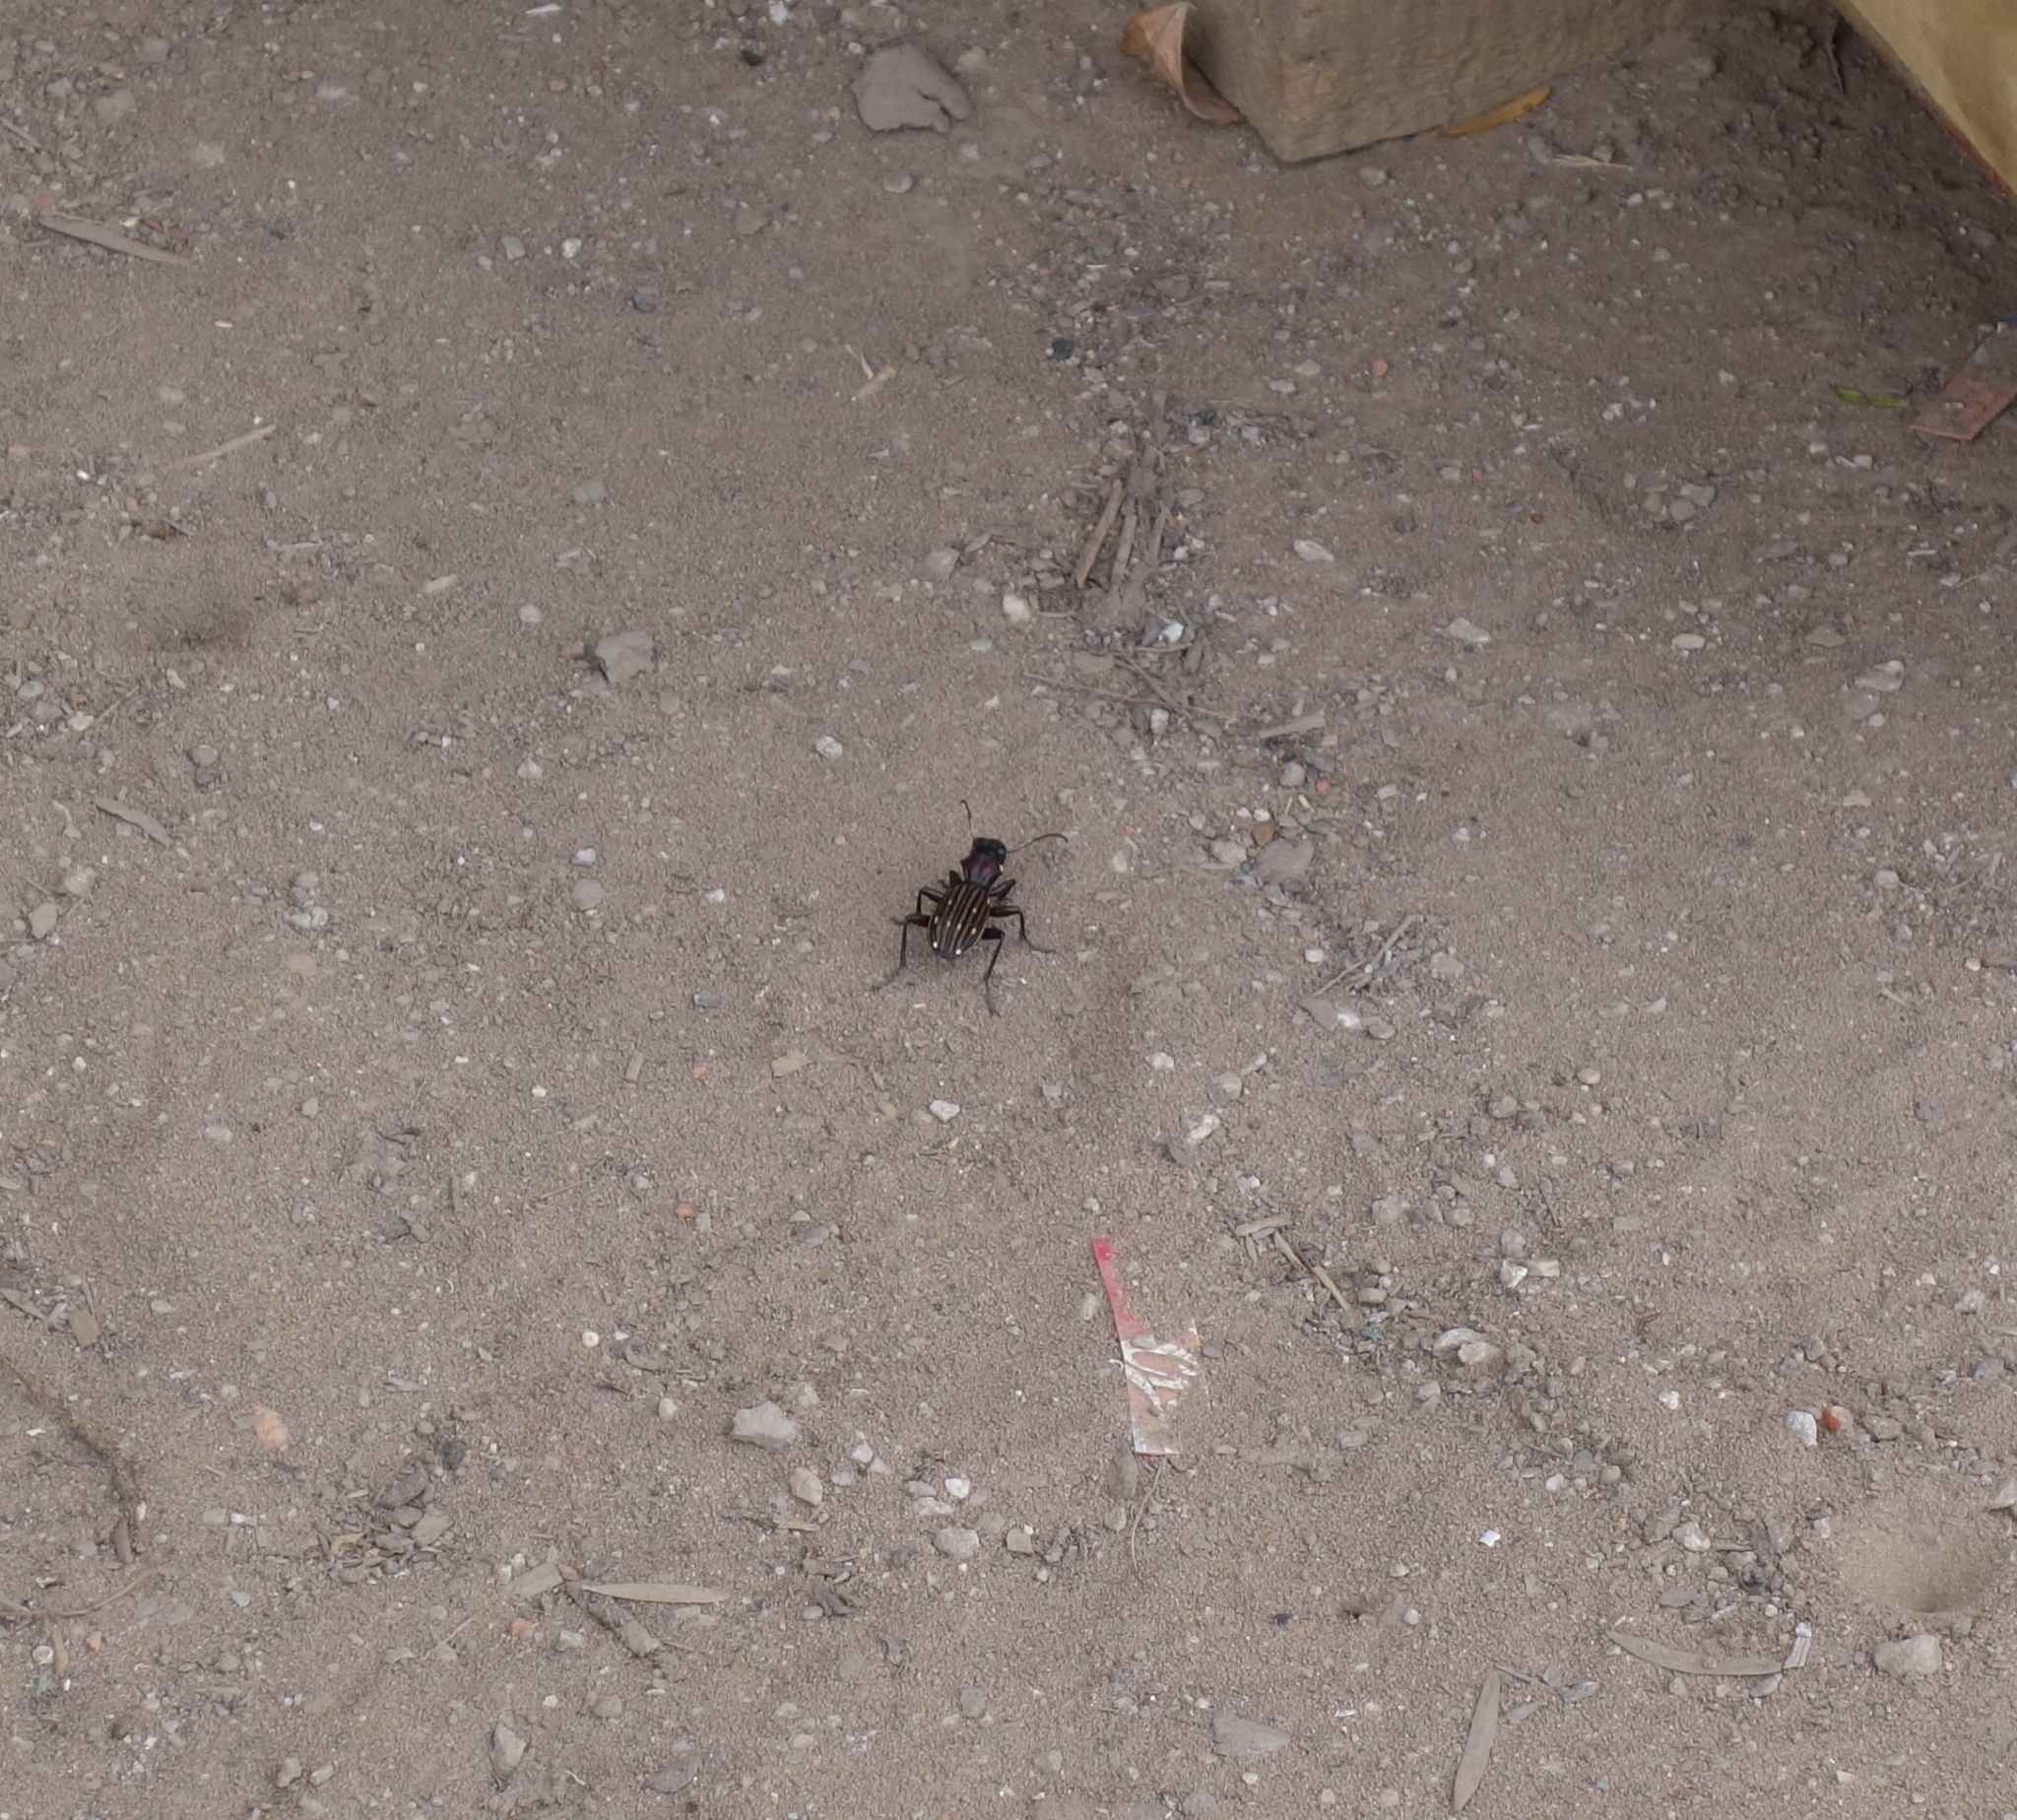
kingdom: Animalia
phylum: Arthropoda
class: Insecta
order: Coleoptera
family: Carabidae
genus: Anthia
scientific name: Anthia decemguttata
